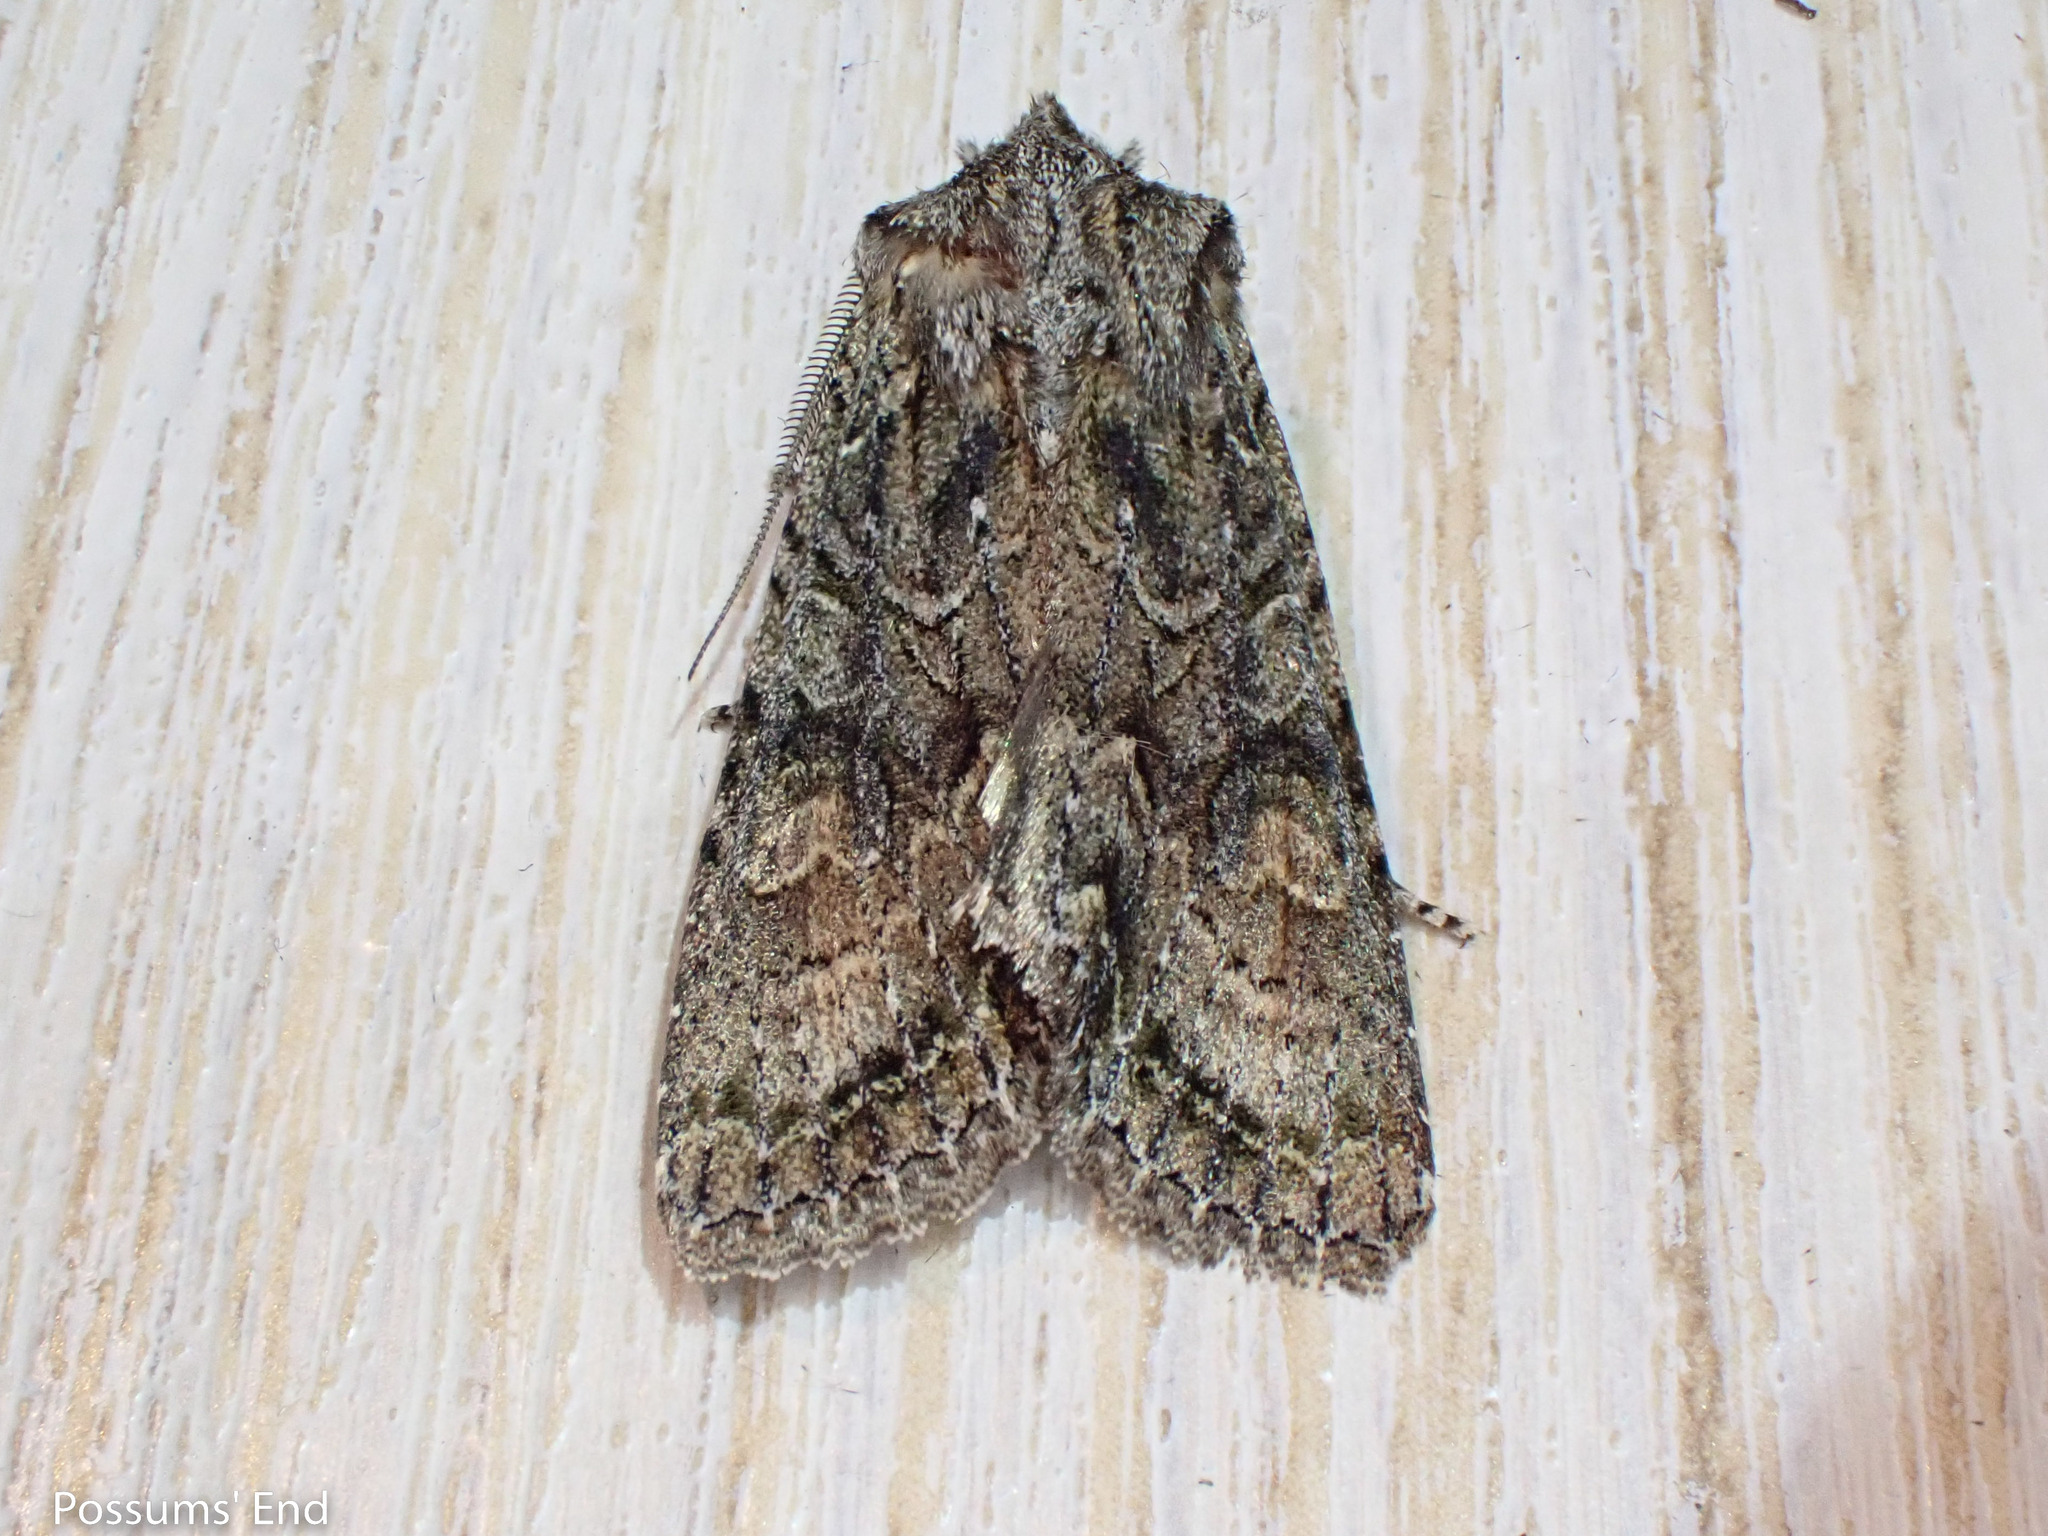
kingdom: Animalia
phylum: Arthropoda
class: Insecta
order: Lepidoptera
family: Noctuidae
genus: Ichneutica
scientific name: Ichneutica mutans
